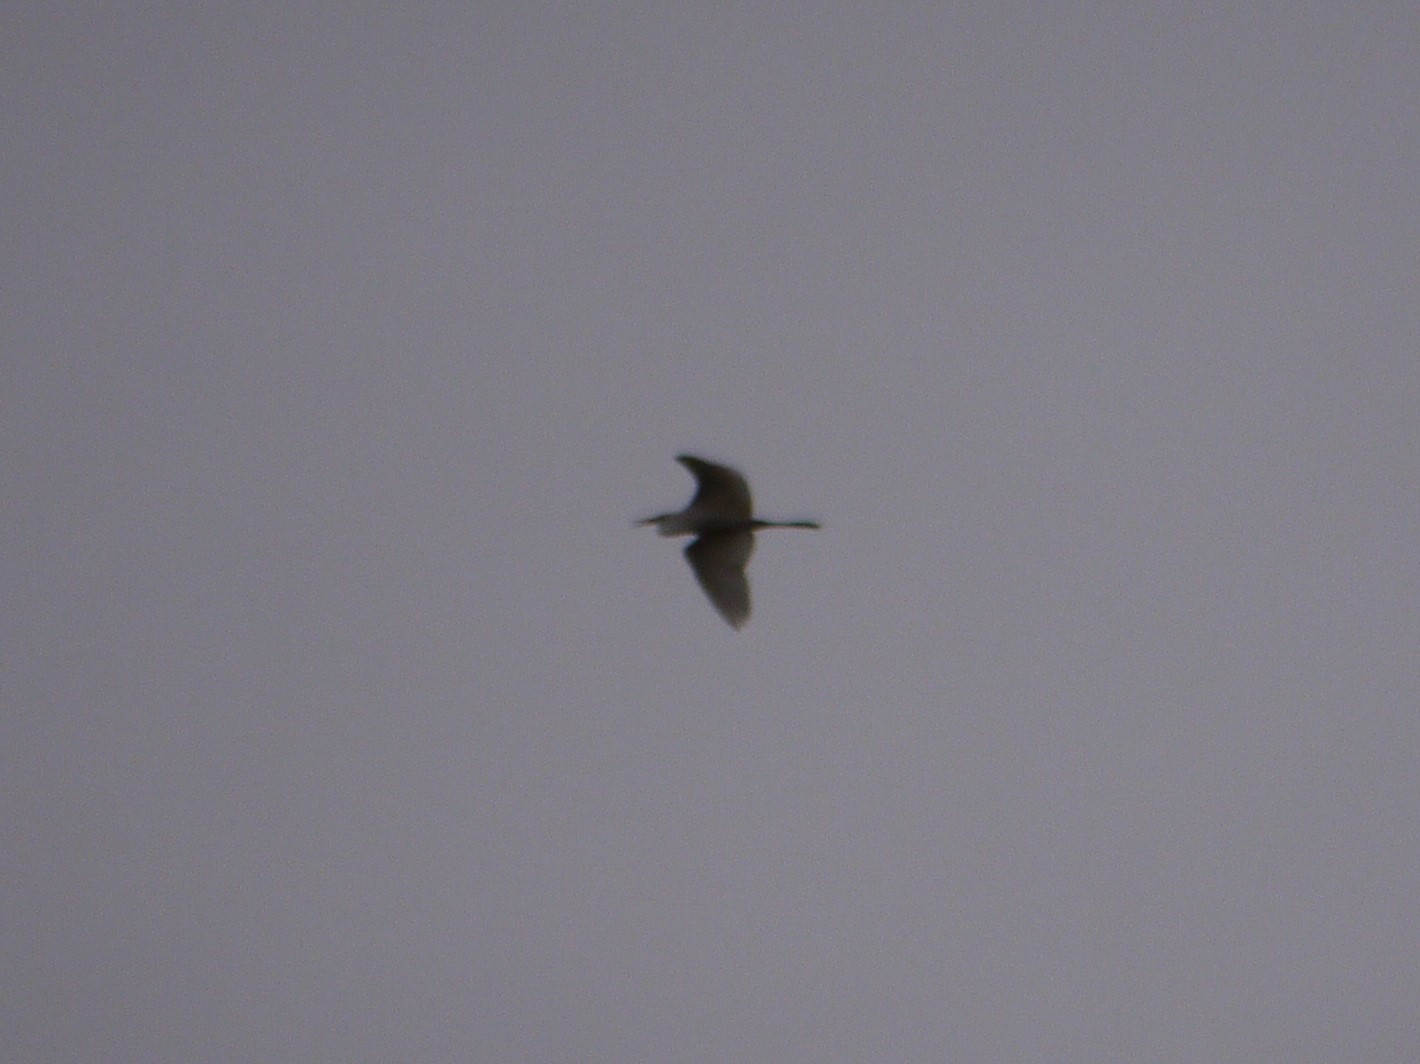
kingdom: Animalia
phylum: Chordata
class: Aves
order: Pelecaniformes
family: Ardeidae
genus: Ardea
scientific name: Ardea alba
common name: Great egret
